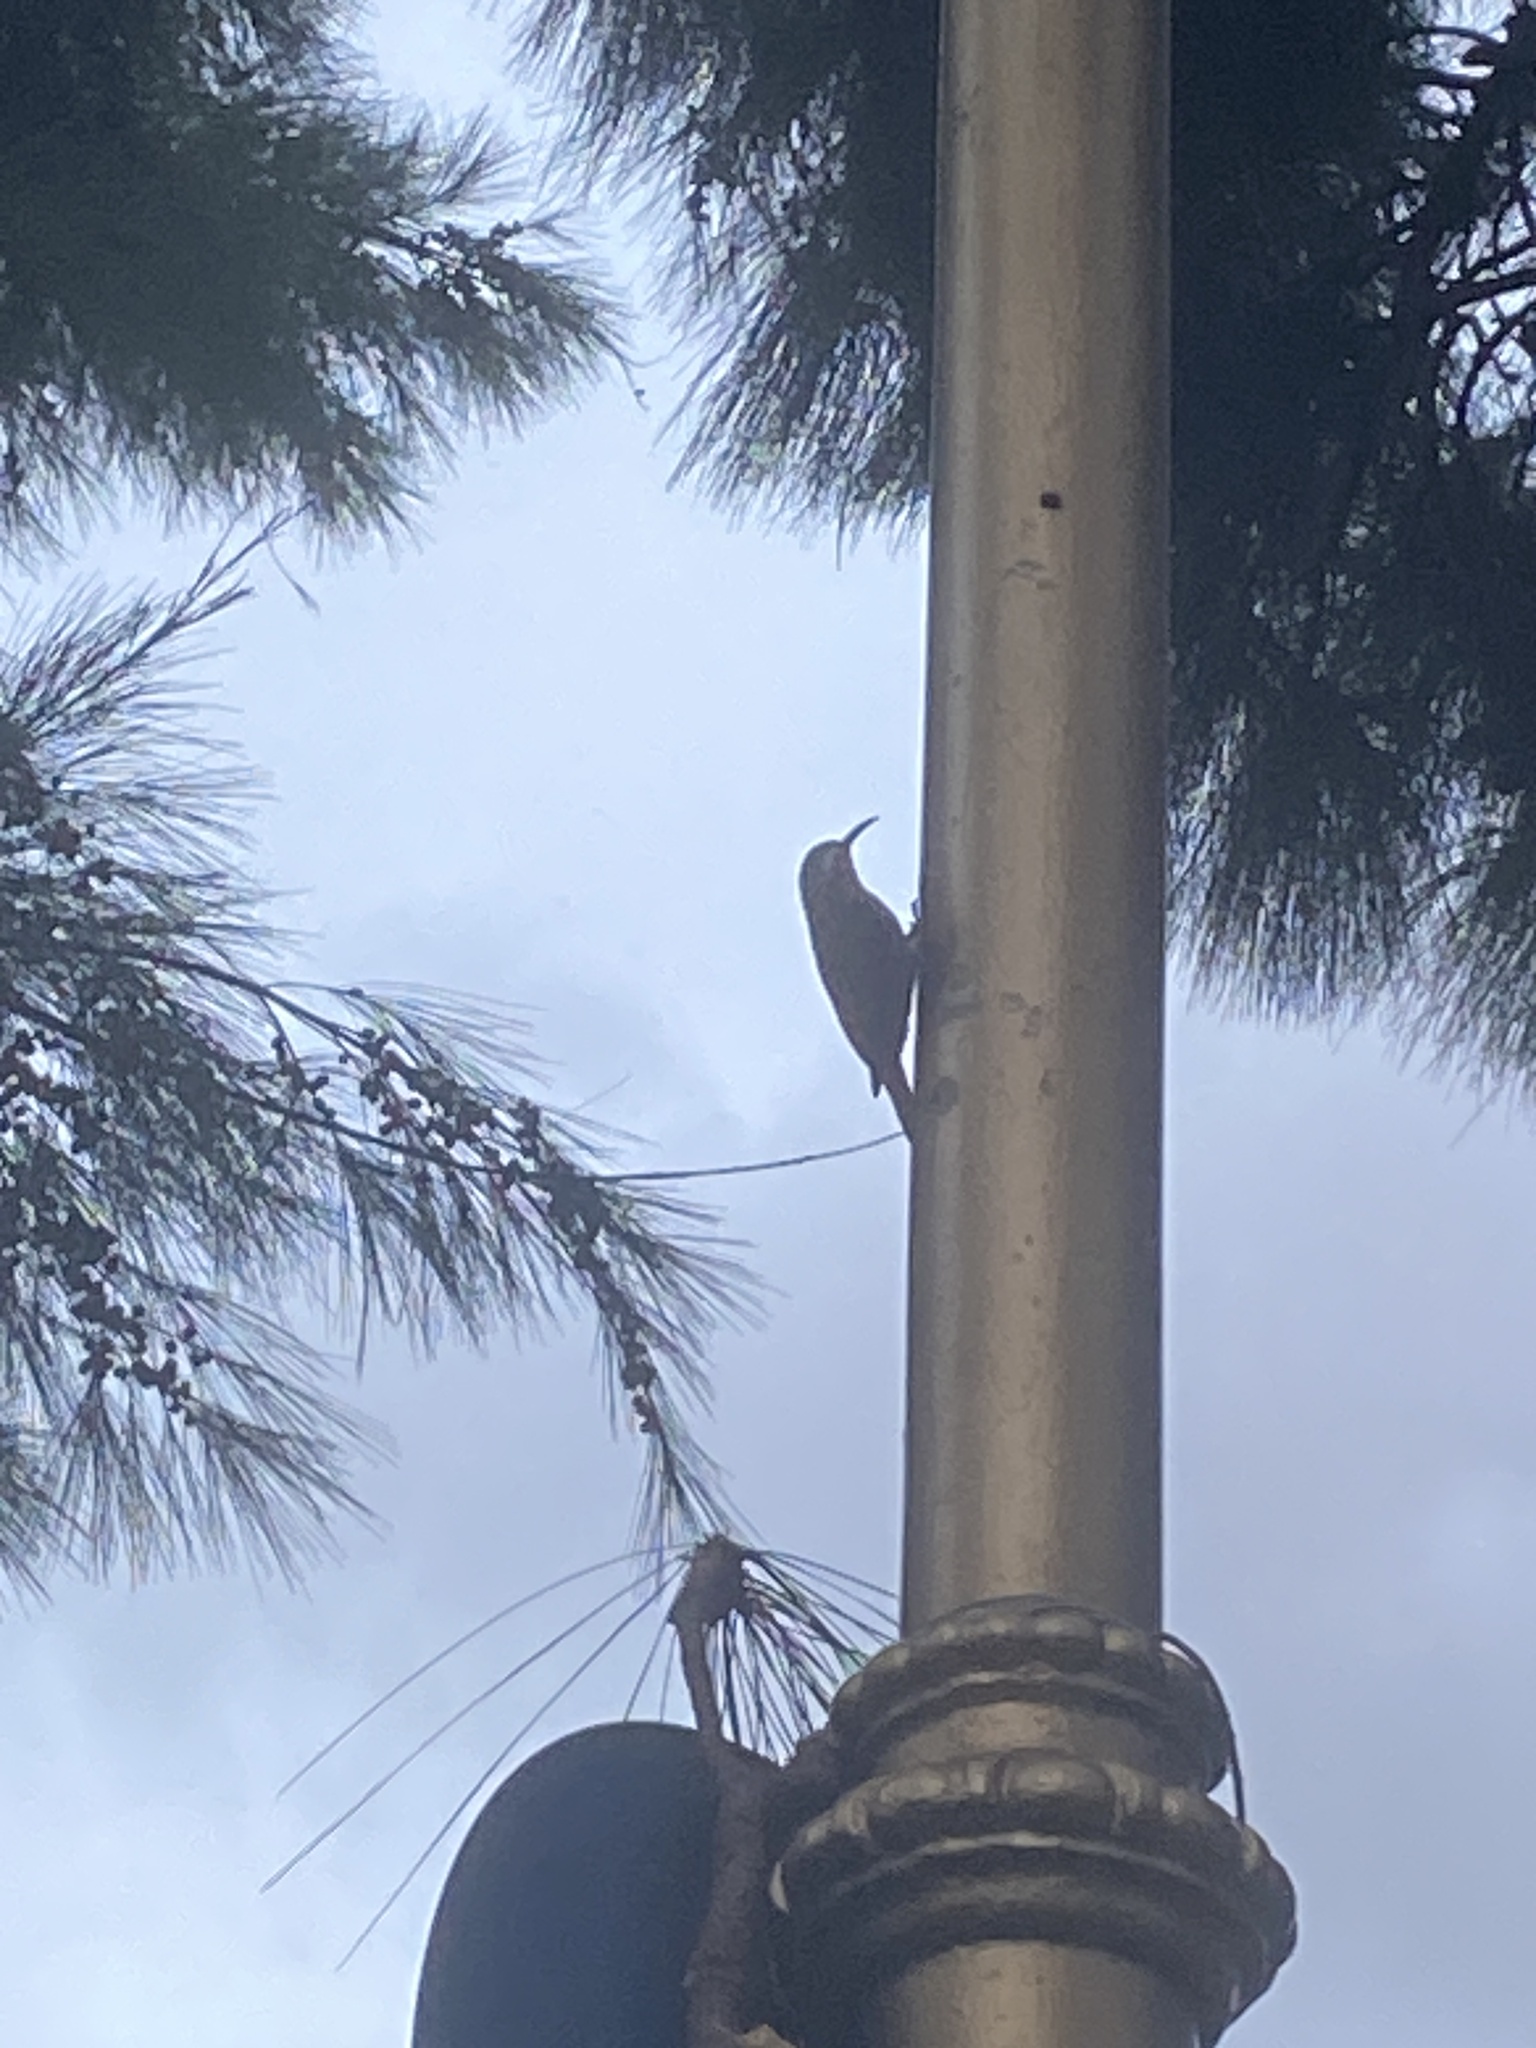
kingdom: Animalia
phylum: Chordata
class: Aves
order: Passeriformes
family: Furnariidae
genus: Lepidocolaptes
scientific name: Lepidocolaptes angustirostris
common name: Narrow-billed woodcreeper
